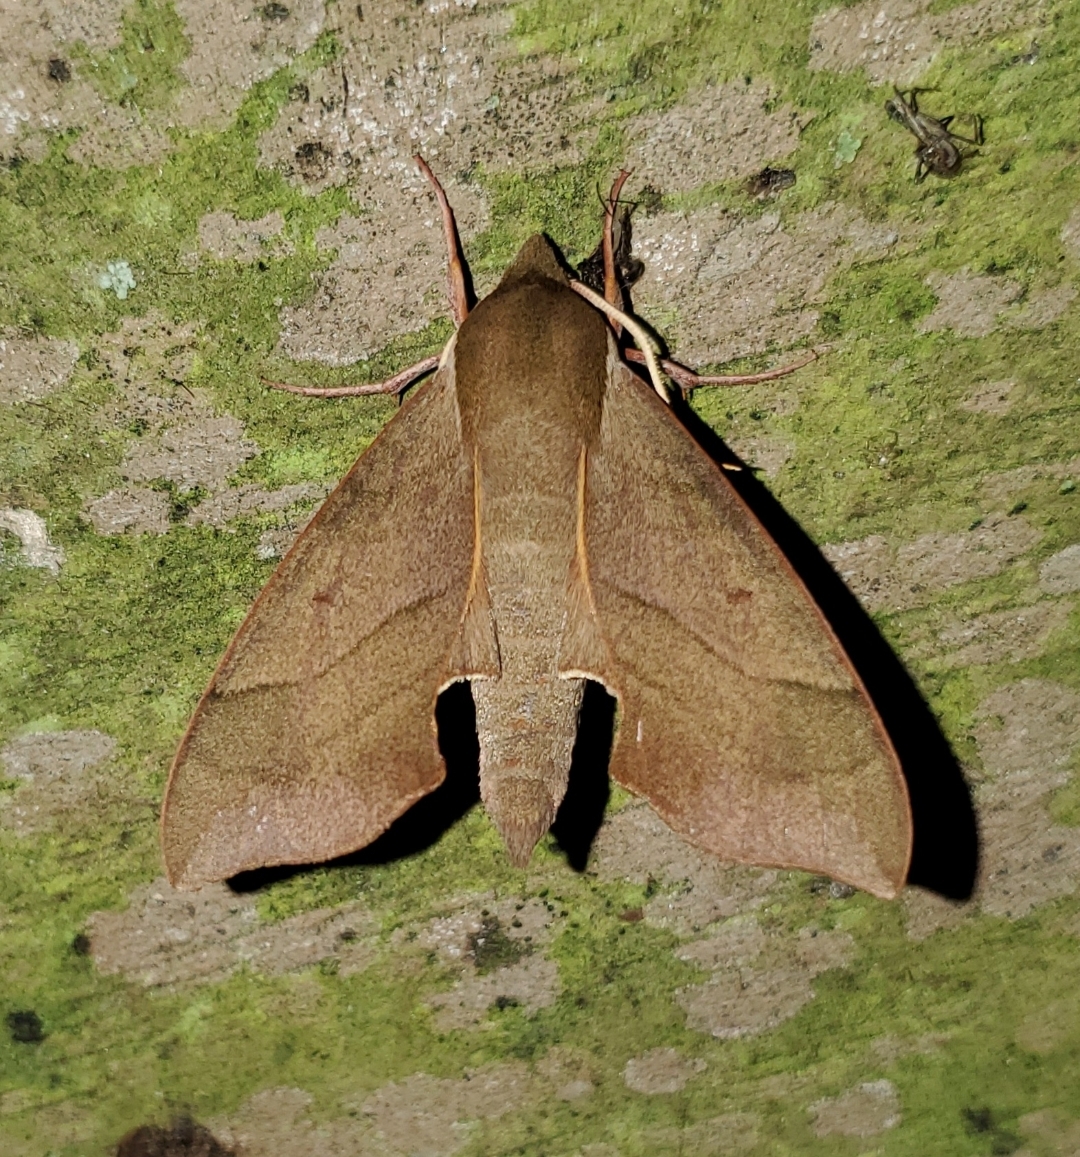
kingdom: Animalia
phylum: Arthropoda
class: Insecta
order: Lepidoptera
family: Sphingidae
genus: Darapsa
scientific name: Darapsa myron
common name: Hog sphinx
